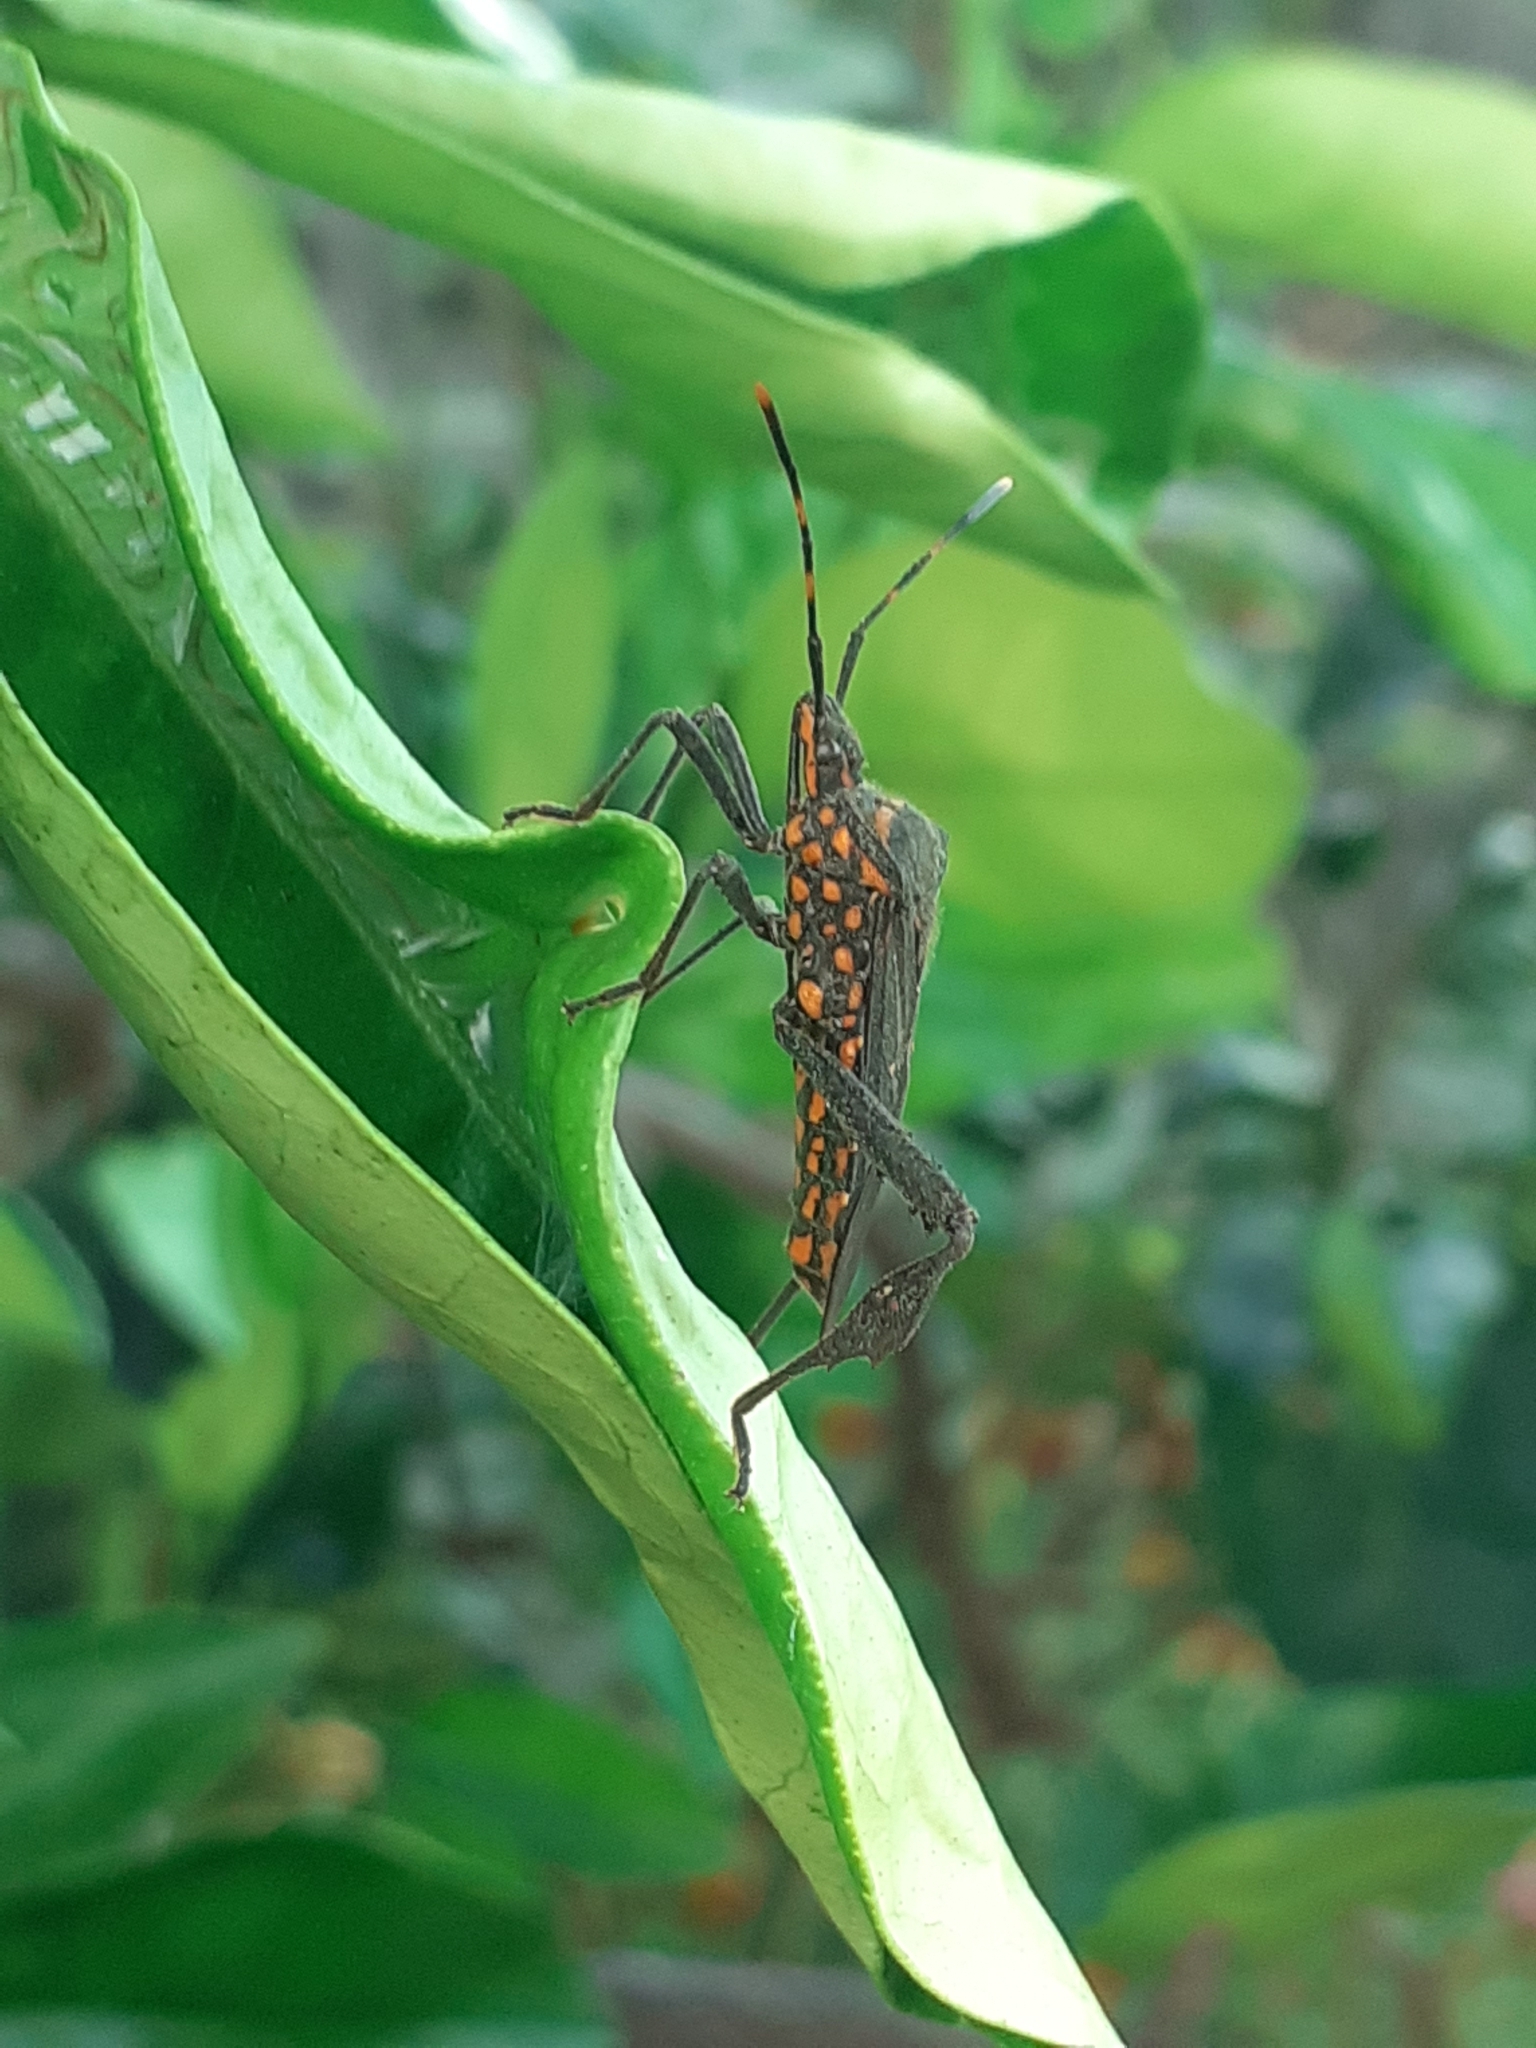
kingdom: Animalia
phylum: Arthropoda
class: Insecta
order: Hemiptera
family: Coreidae
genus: Leptoglossus
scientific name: Leptoglossus gonagra
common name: Citron bug
